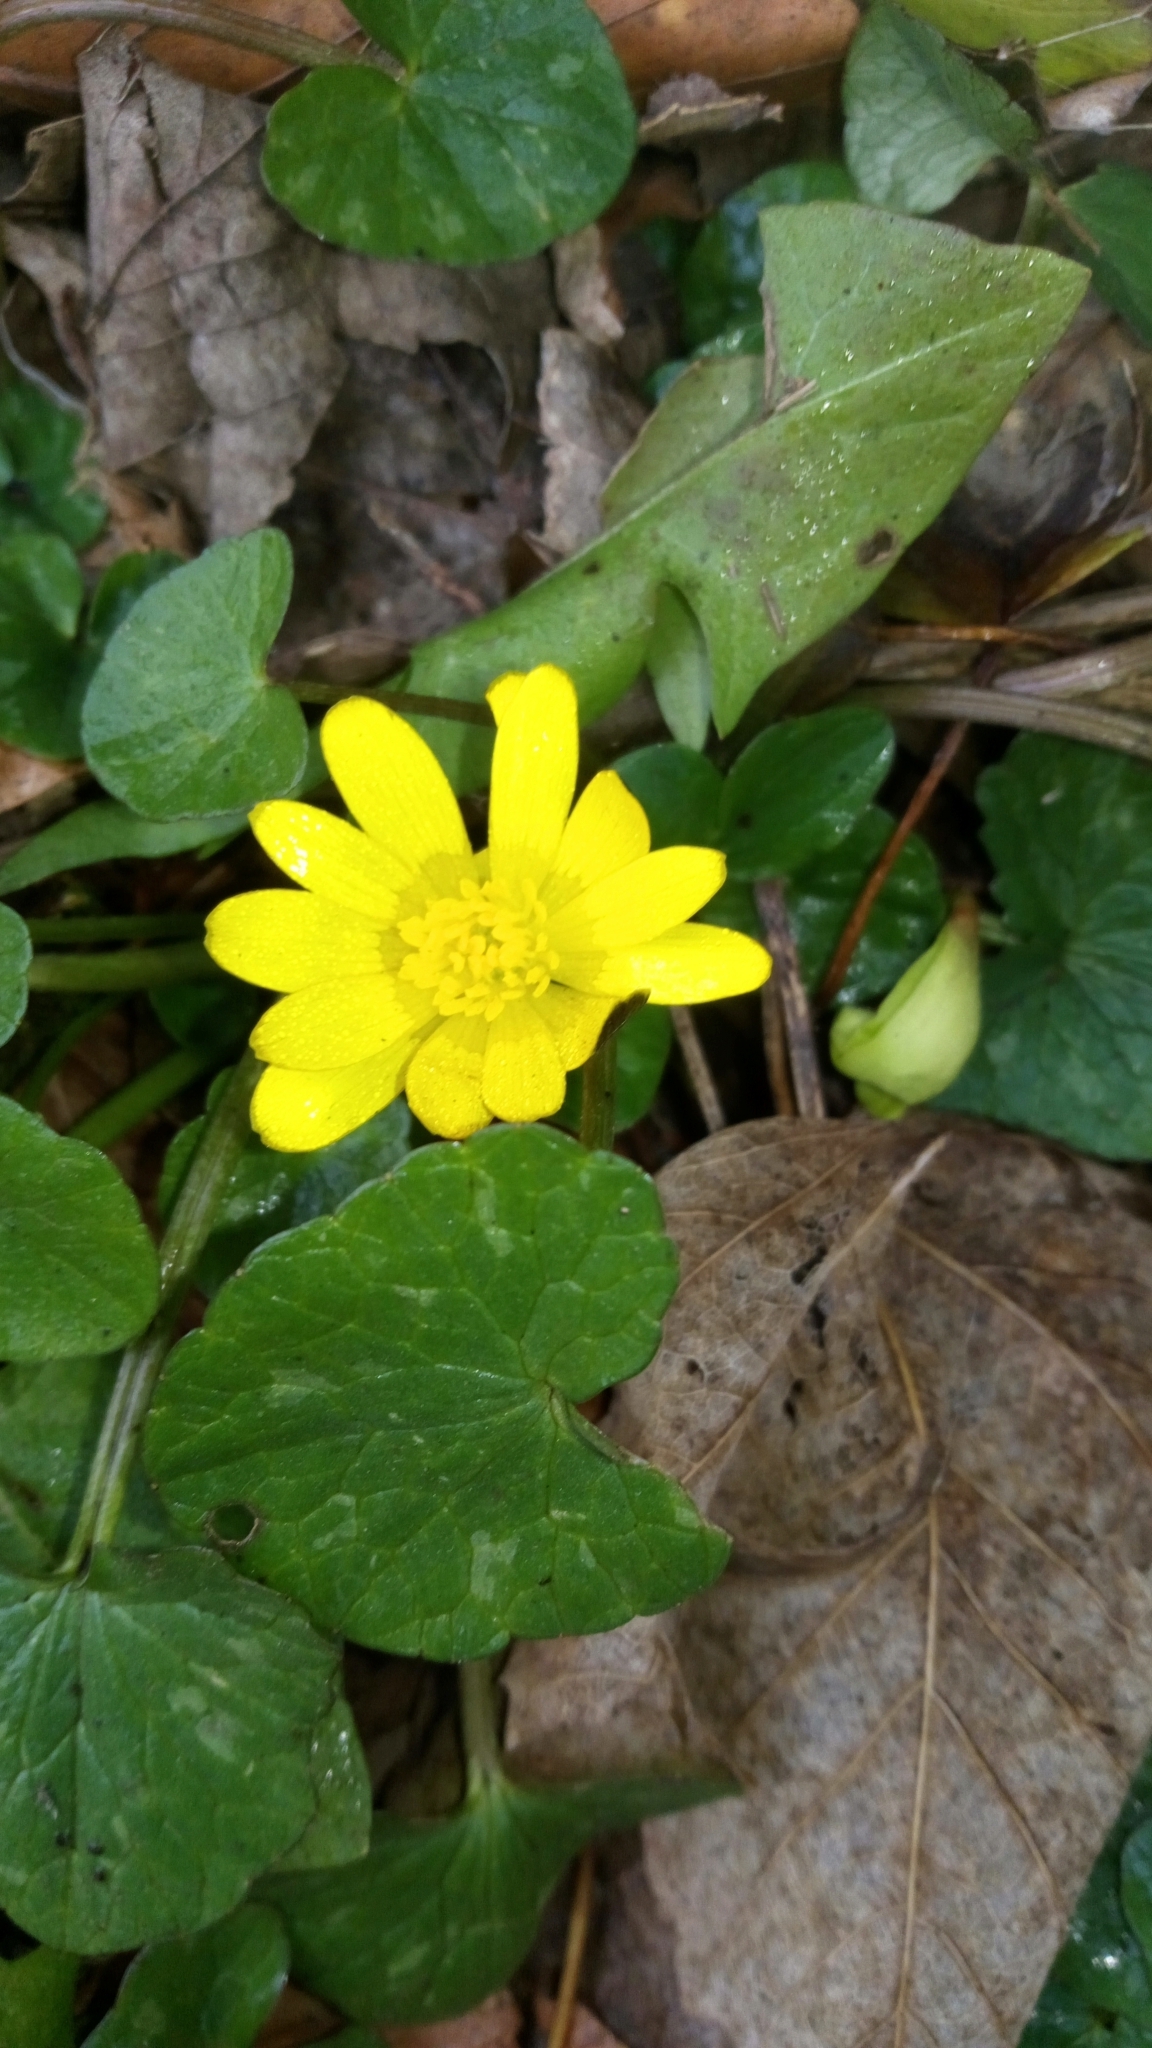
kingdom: Plantae
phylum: Tracheophyta
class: Magnoliopsida
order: Ranunculales
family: Ranunculaceae
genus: Ficaria
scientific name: Ficaria verna
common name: Lesser celandine
